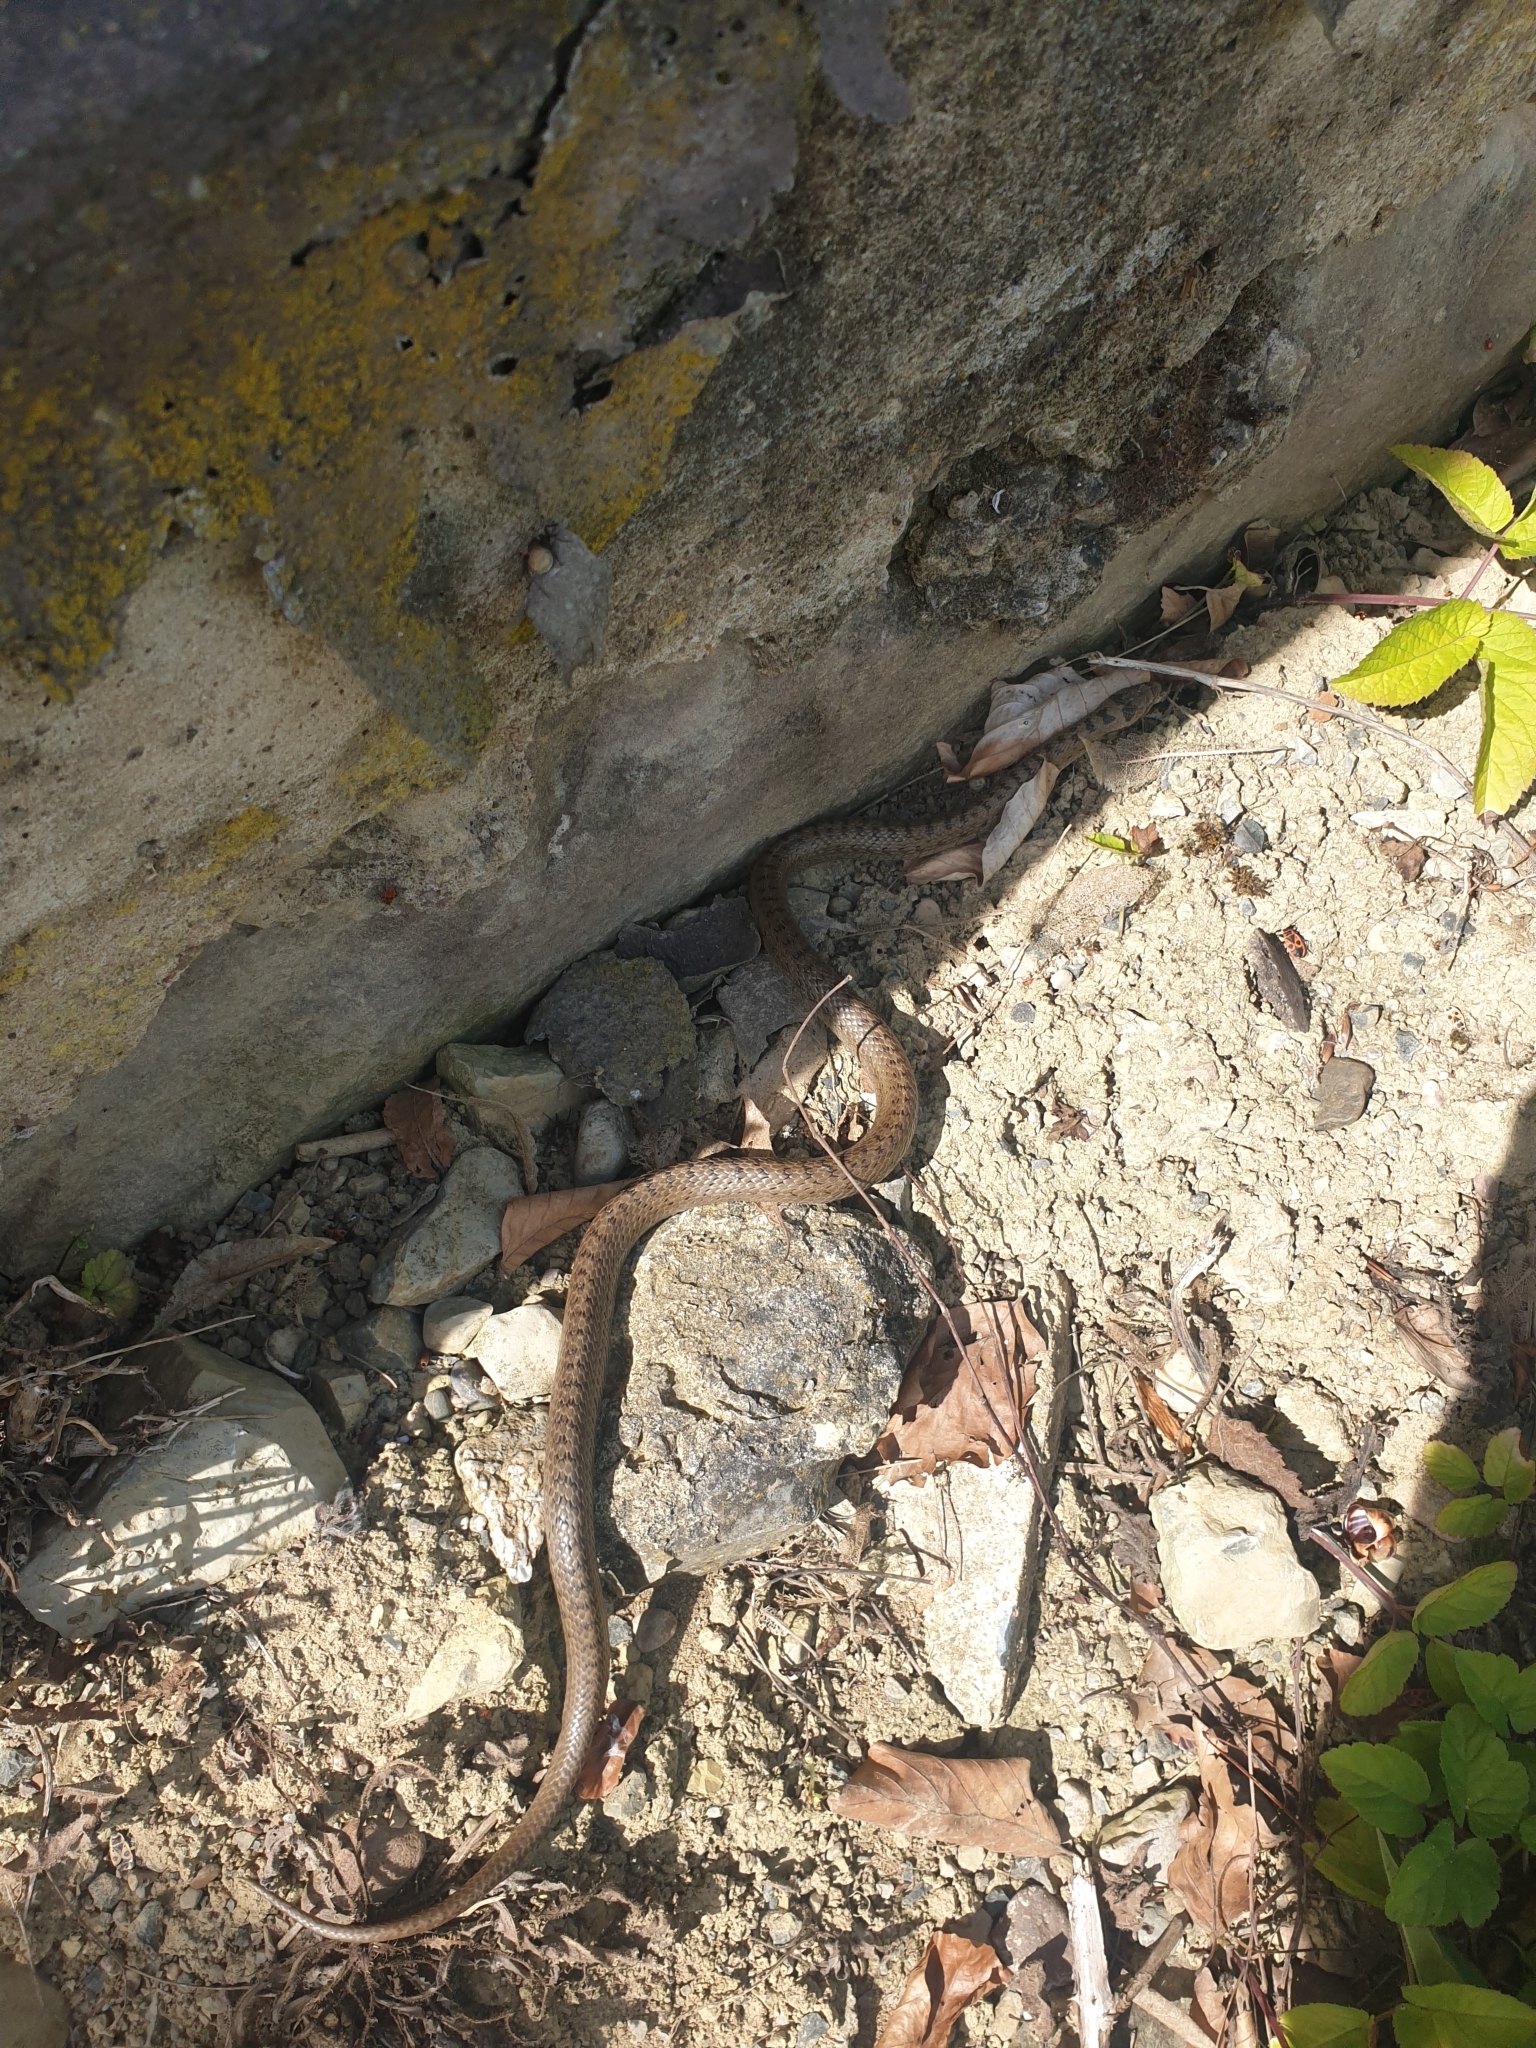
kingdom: Animalia
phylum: Chordata
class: Squamata
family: Colubridae
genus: Coronella
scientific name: Coronella austriaca
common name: Smooth snake
